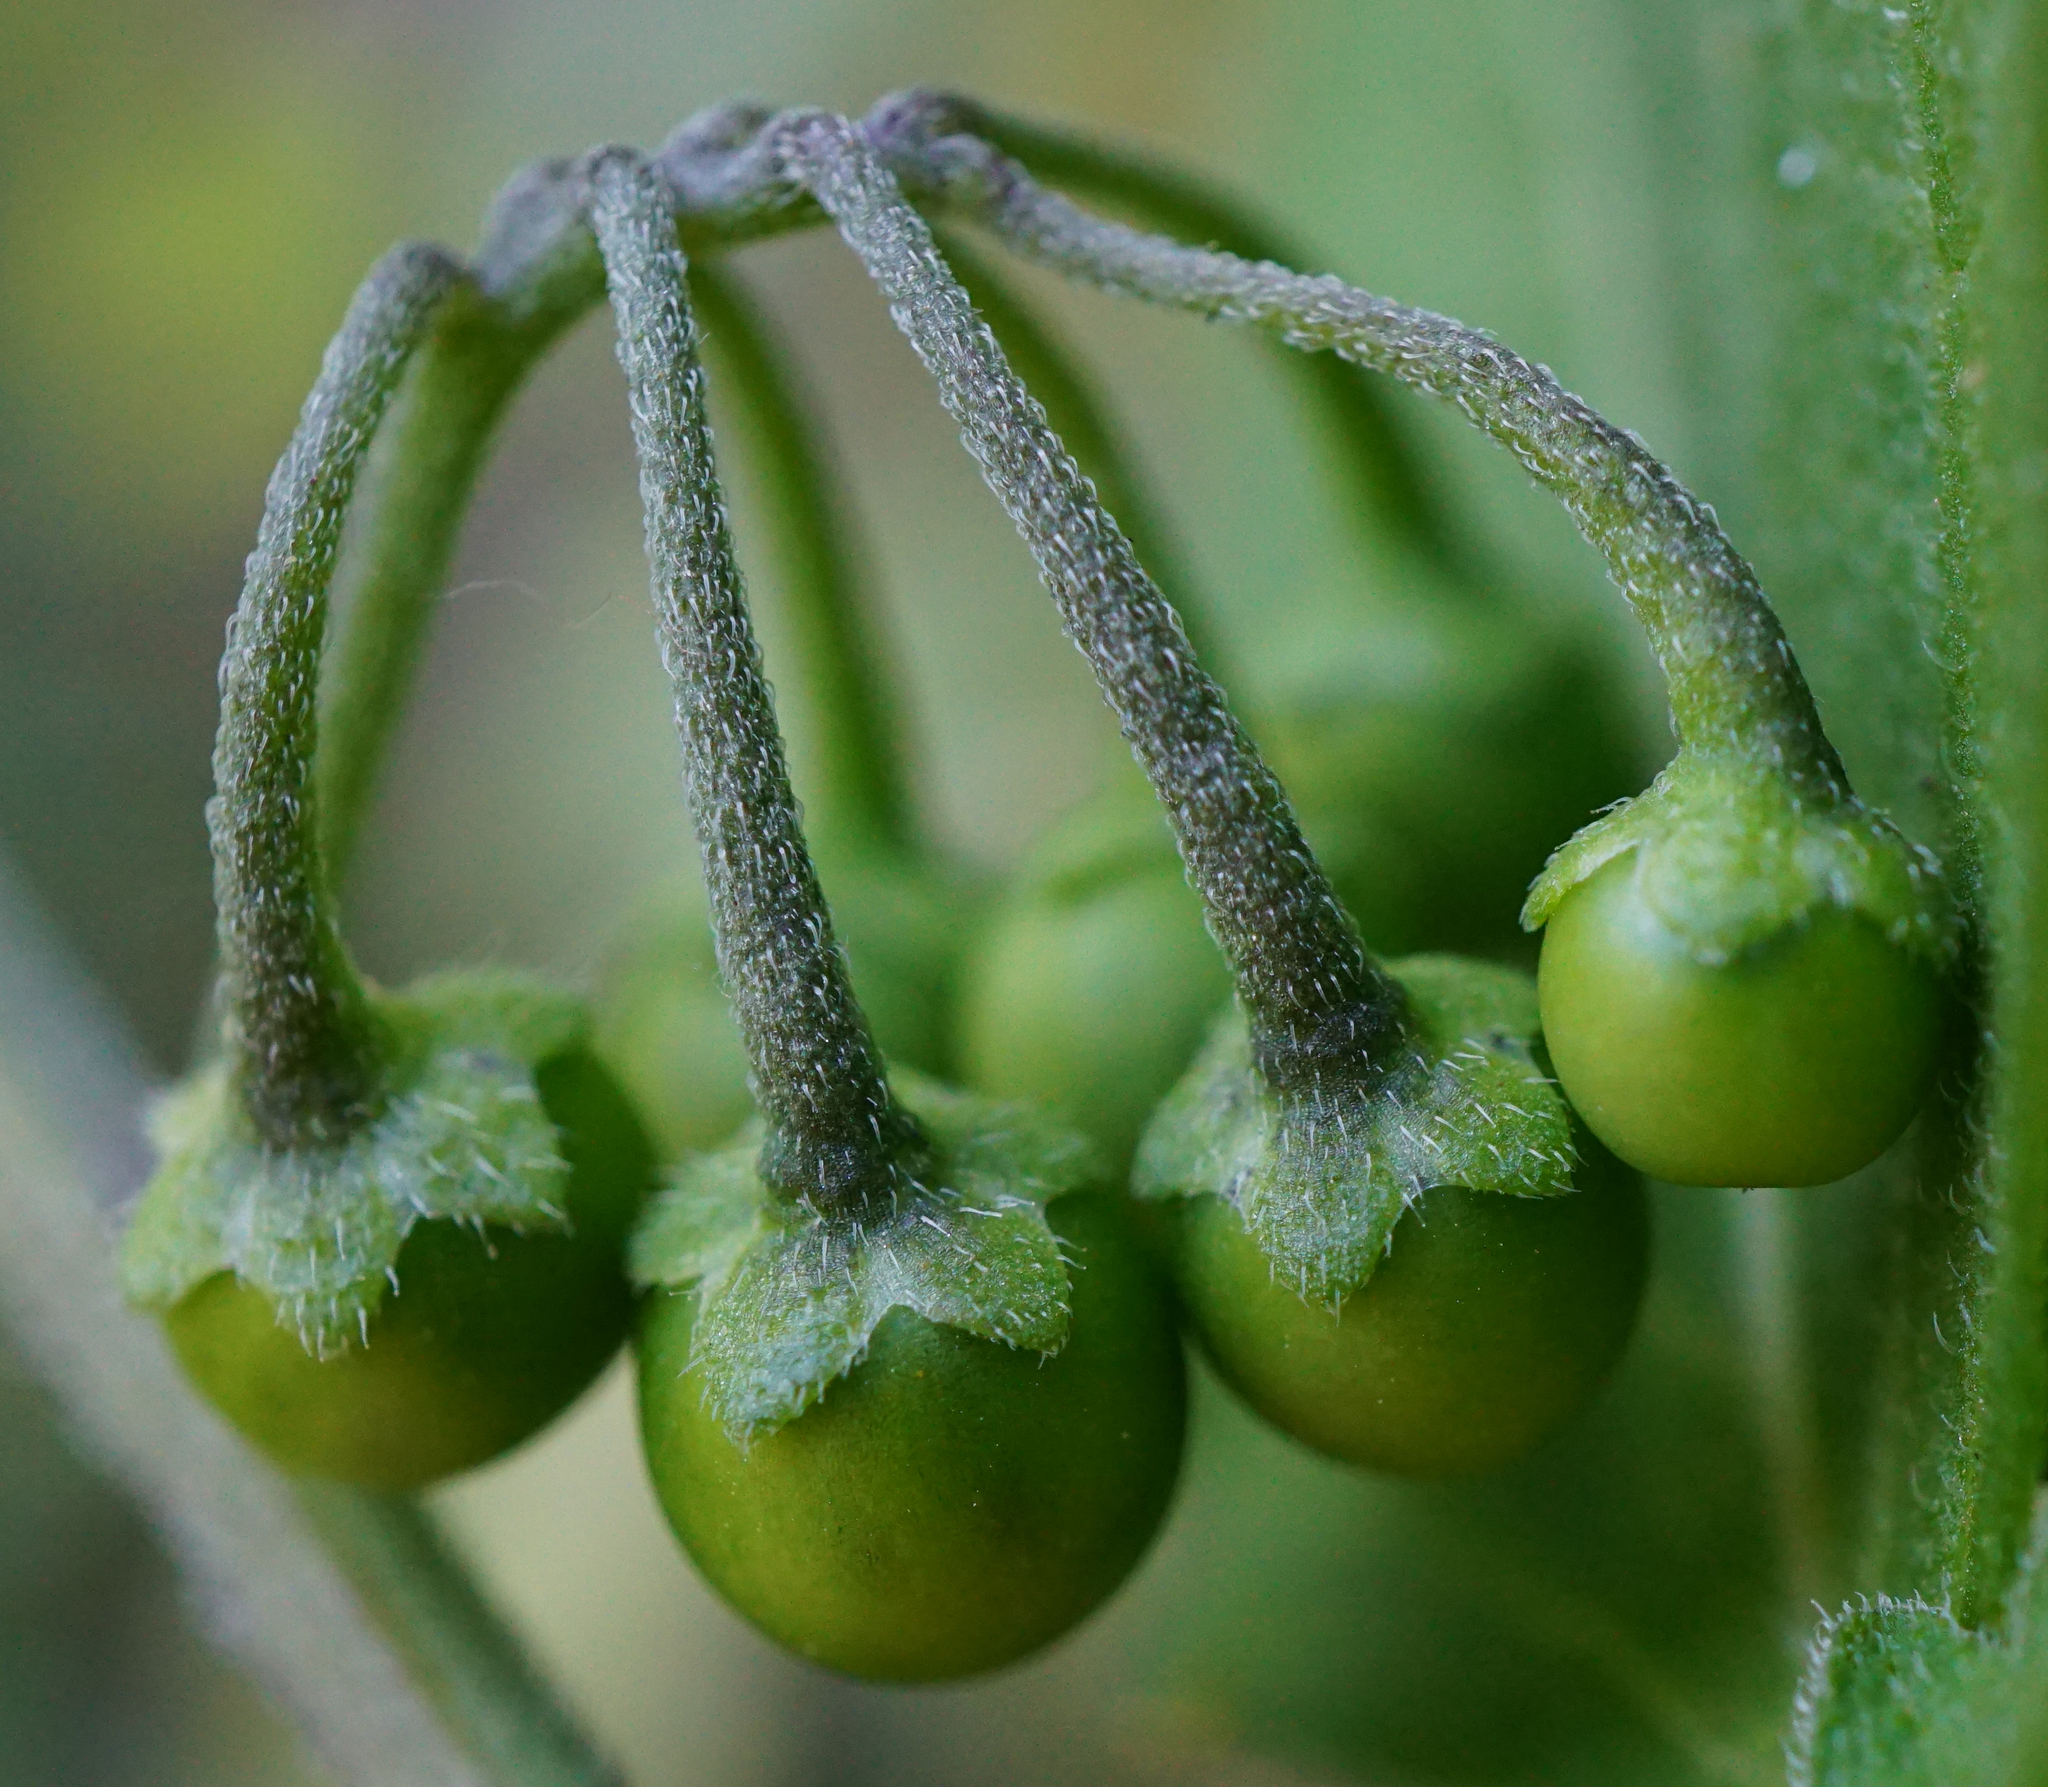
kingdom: Plantae
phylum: Tracheophyta
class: Magnoliopsida
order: Solanales
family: Solanaceae
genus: Solanum
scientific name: Solanum nigrum
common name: Black nightshade
